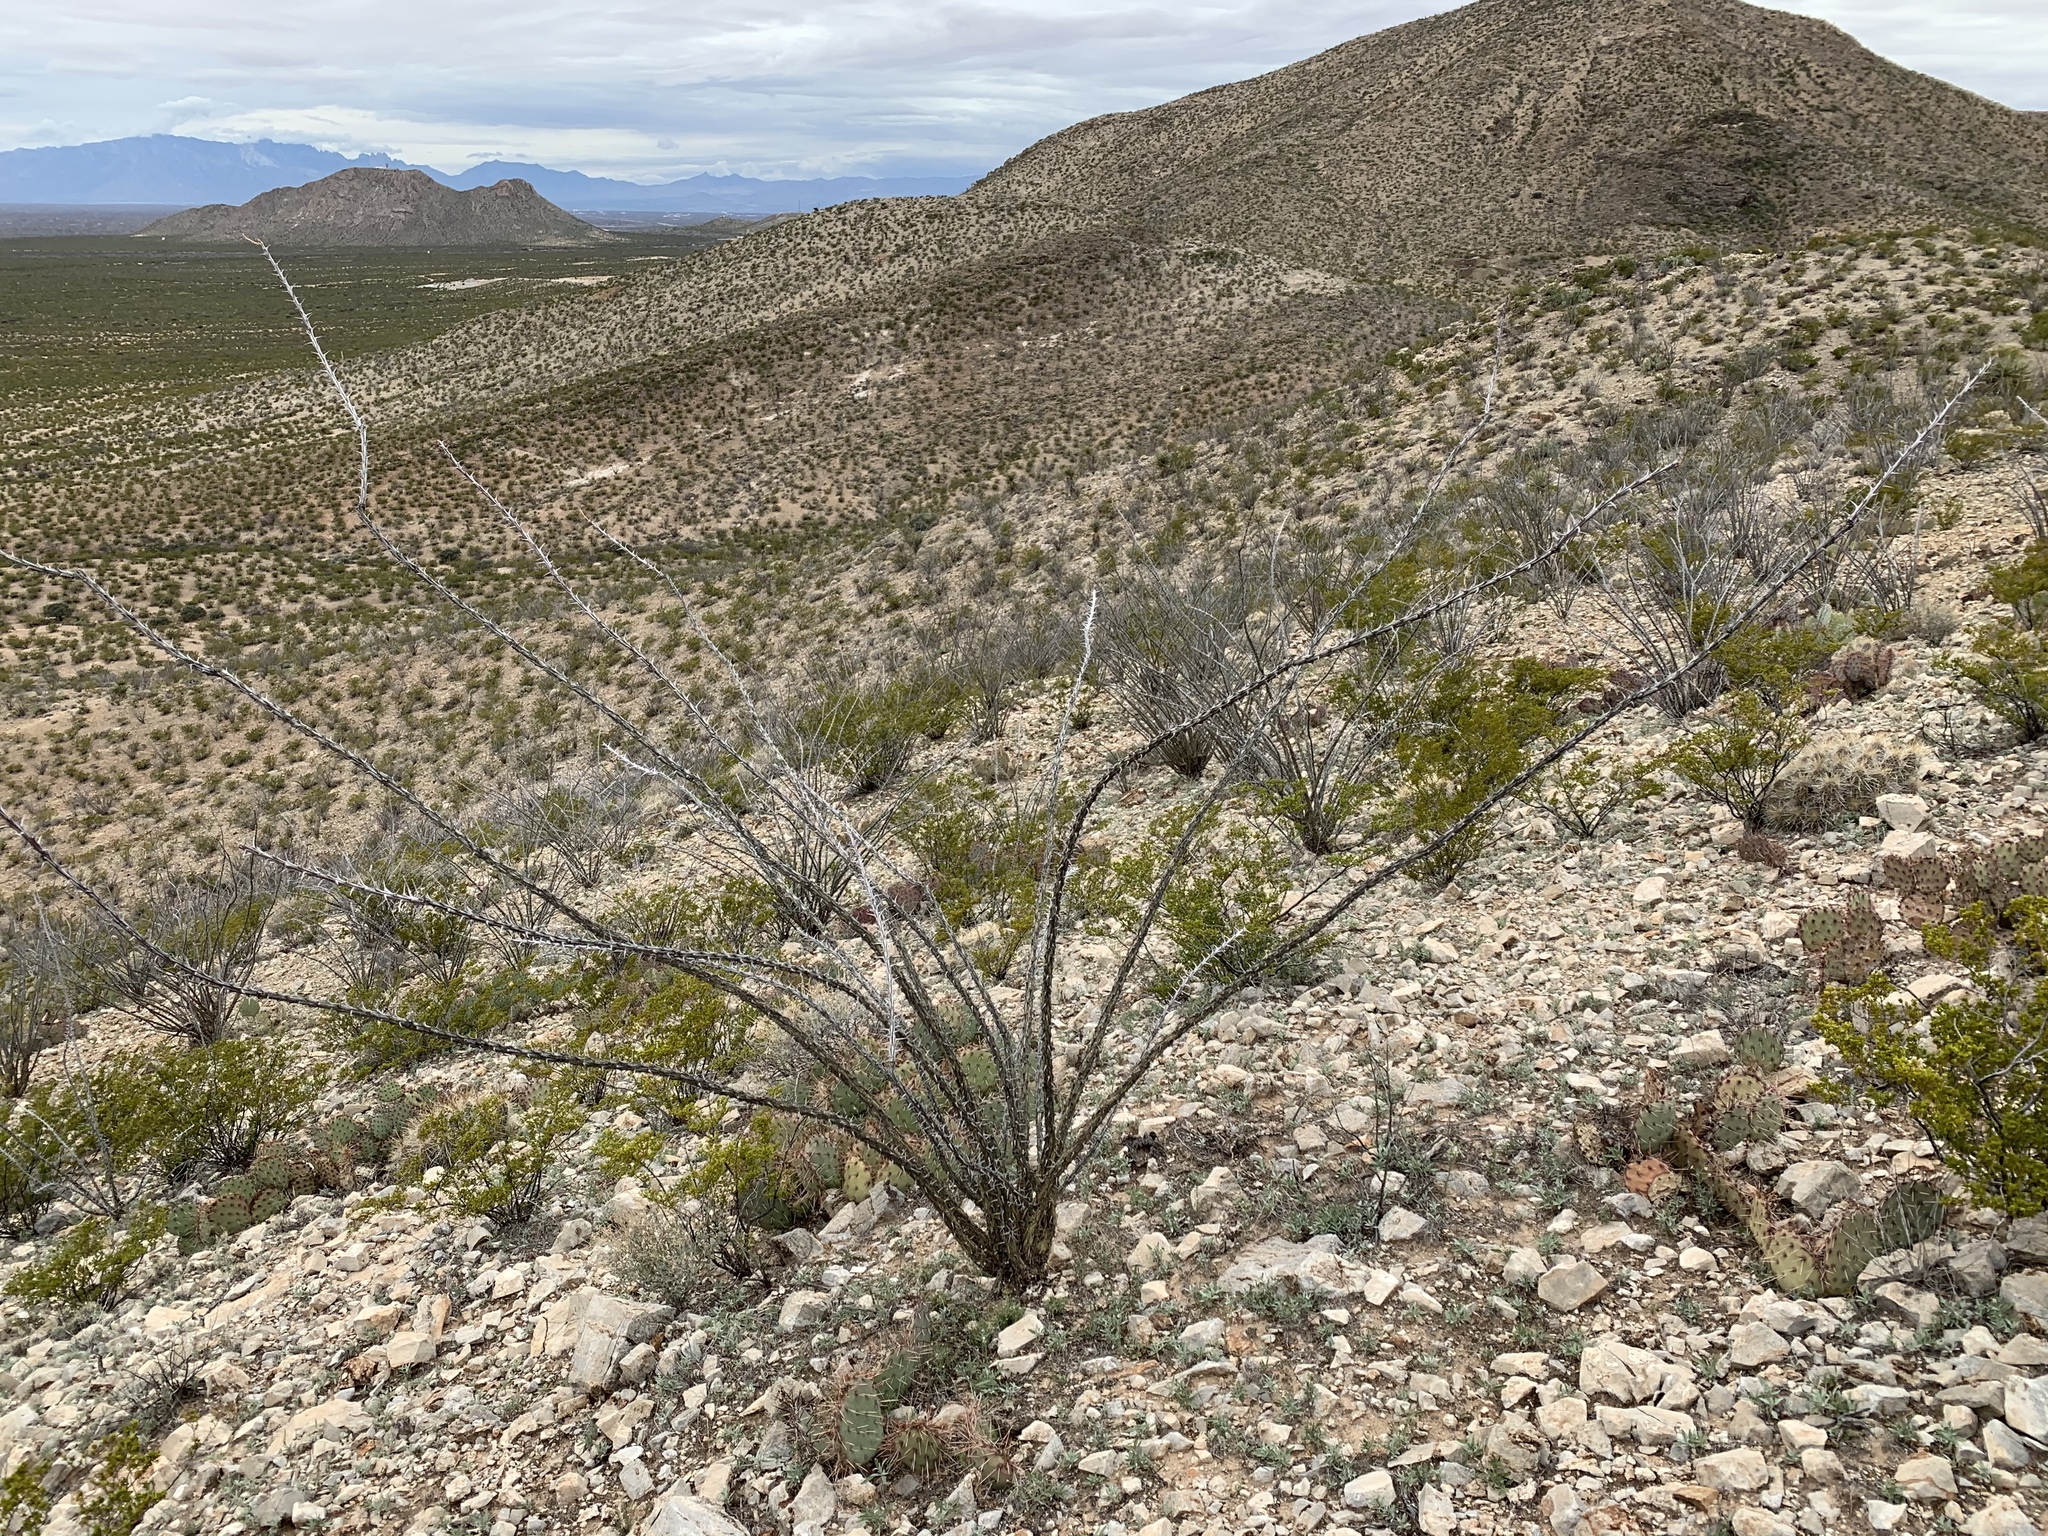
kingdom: Plantae
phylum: Tracheophyta
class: Magnoliopsida
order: Ericales
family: Fouquieriaceae
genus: Fouquieria
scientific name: Fouquieria splendens
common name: Vine-cactus
